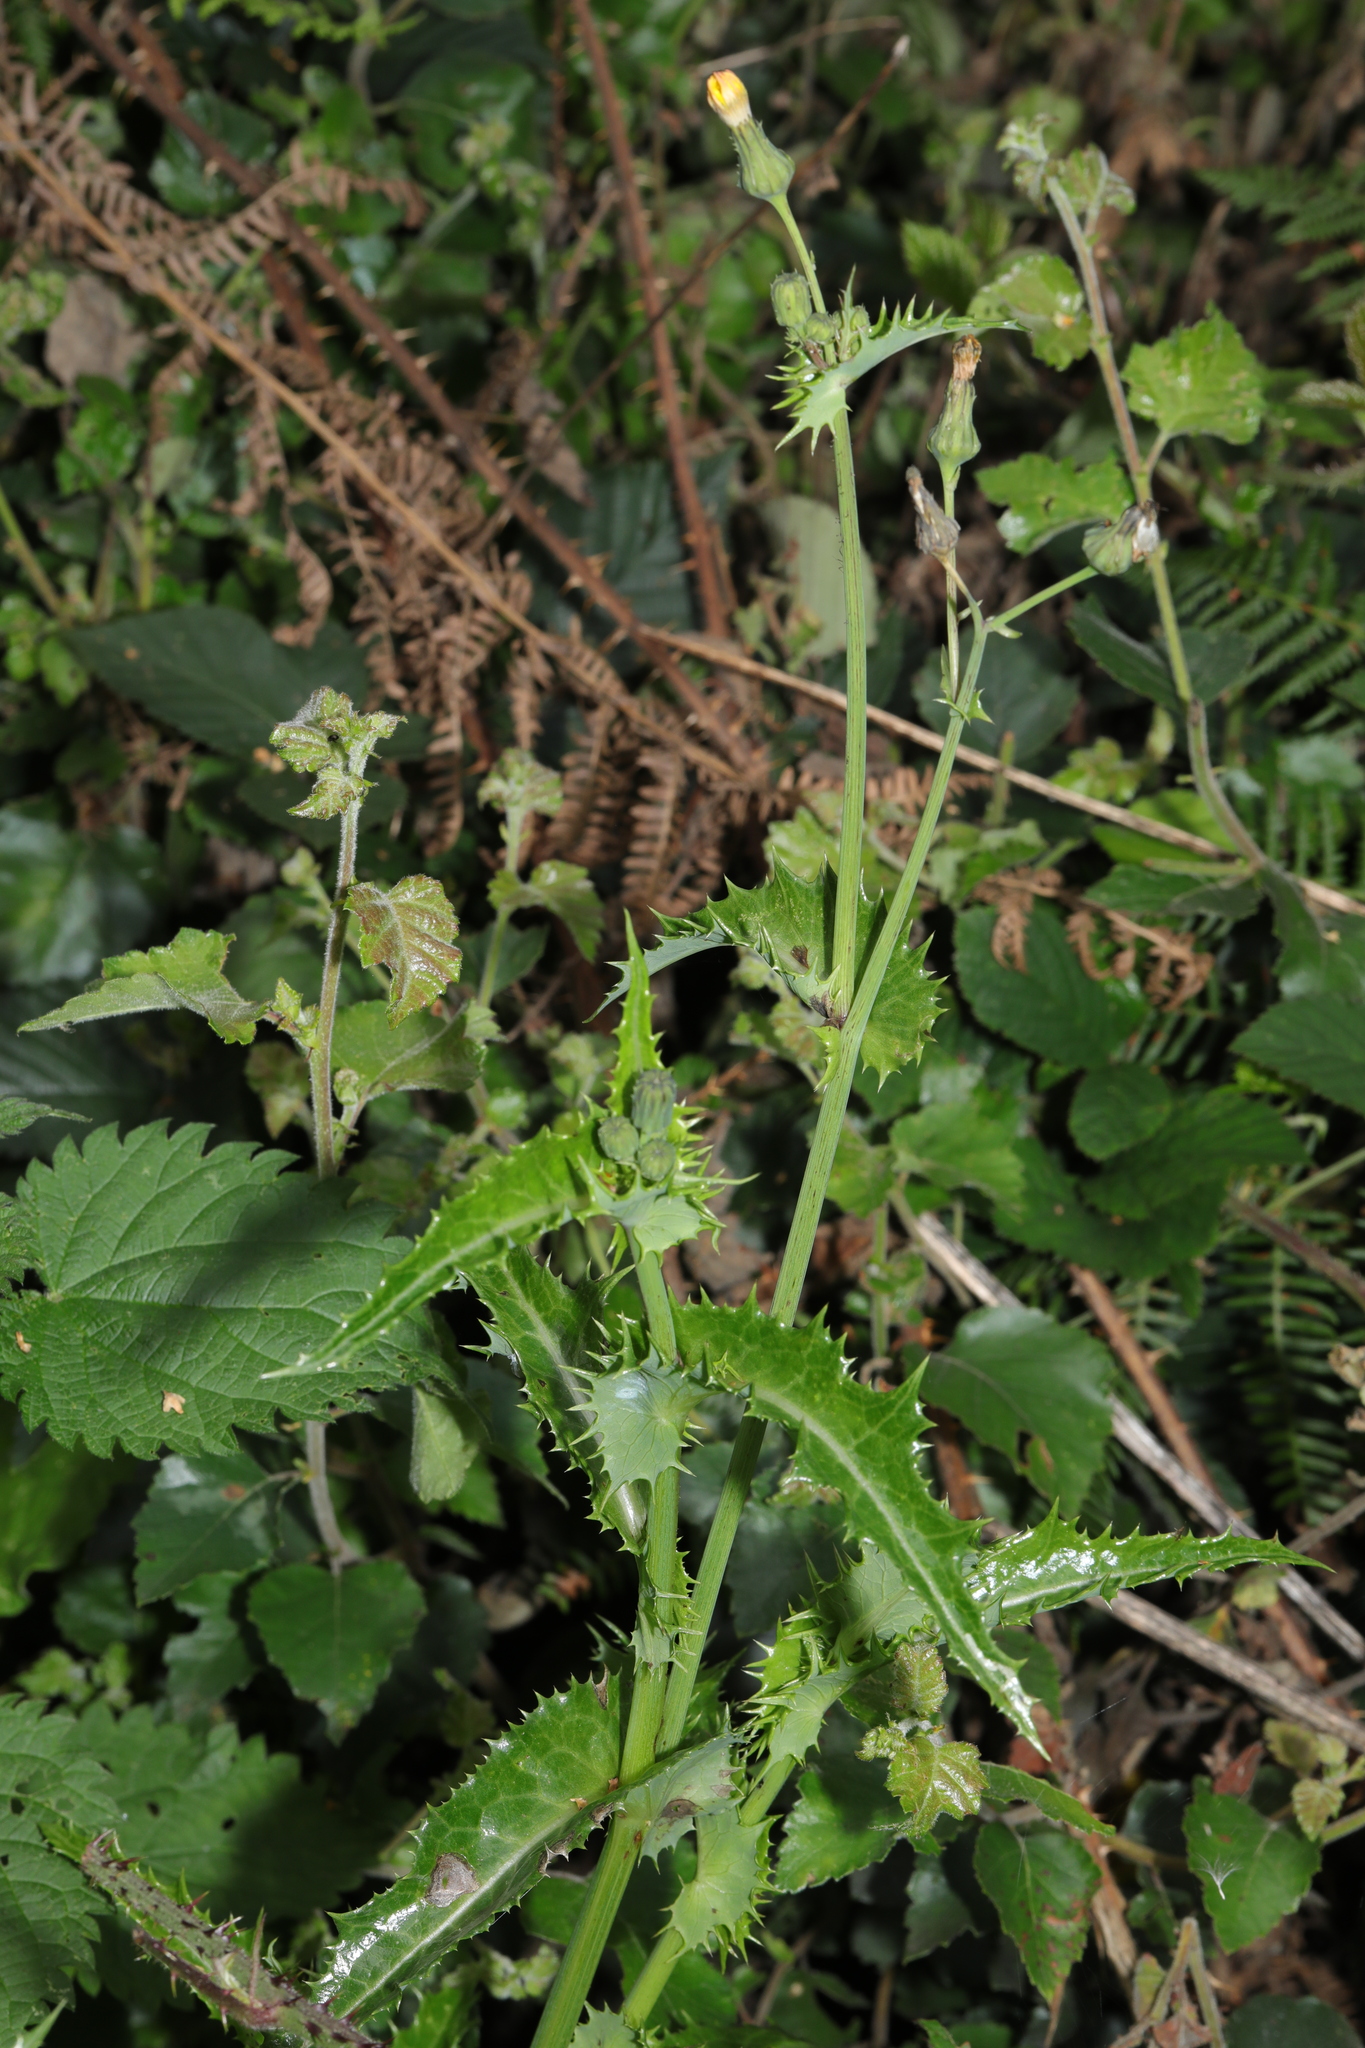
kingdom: Plantae
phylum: Tracheophyta
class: Magnoliopsida
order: Asterales
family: Asteraceae
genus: Sonchus
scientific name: Sonchus asper
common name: Prickly sow-thistle
